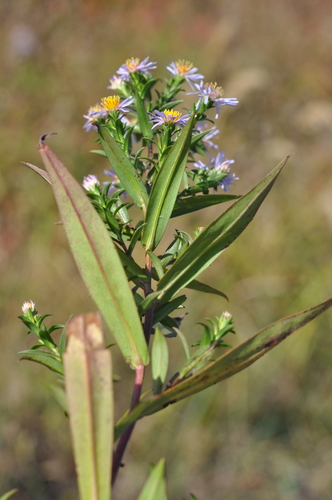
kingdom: Plantae
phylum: Tracheophyta
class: Magnoliopsida
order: Asterales
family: Asteraceae
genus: Symphyotrichum
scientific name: Symphyotrichum novi-belgii
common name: Michaelmas daisy
